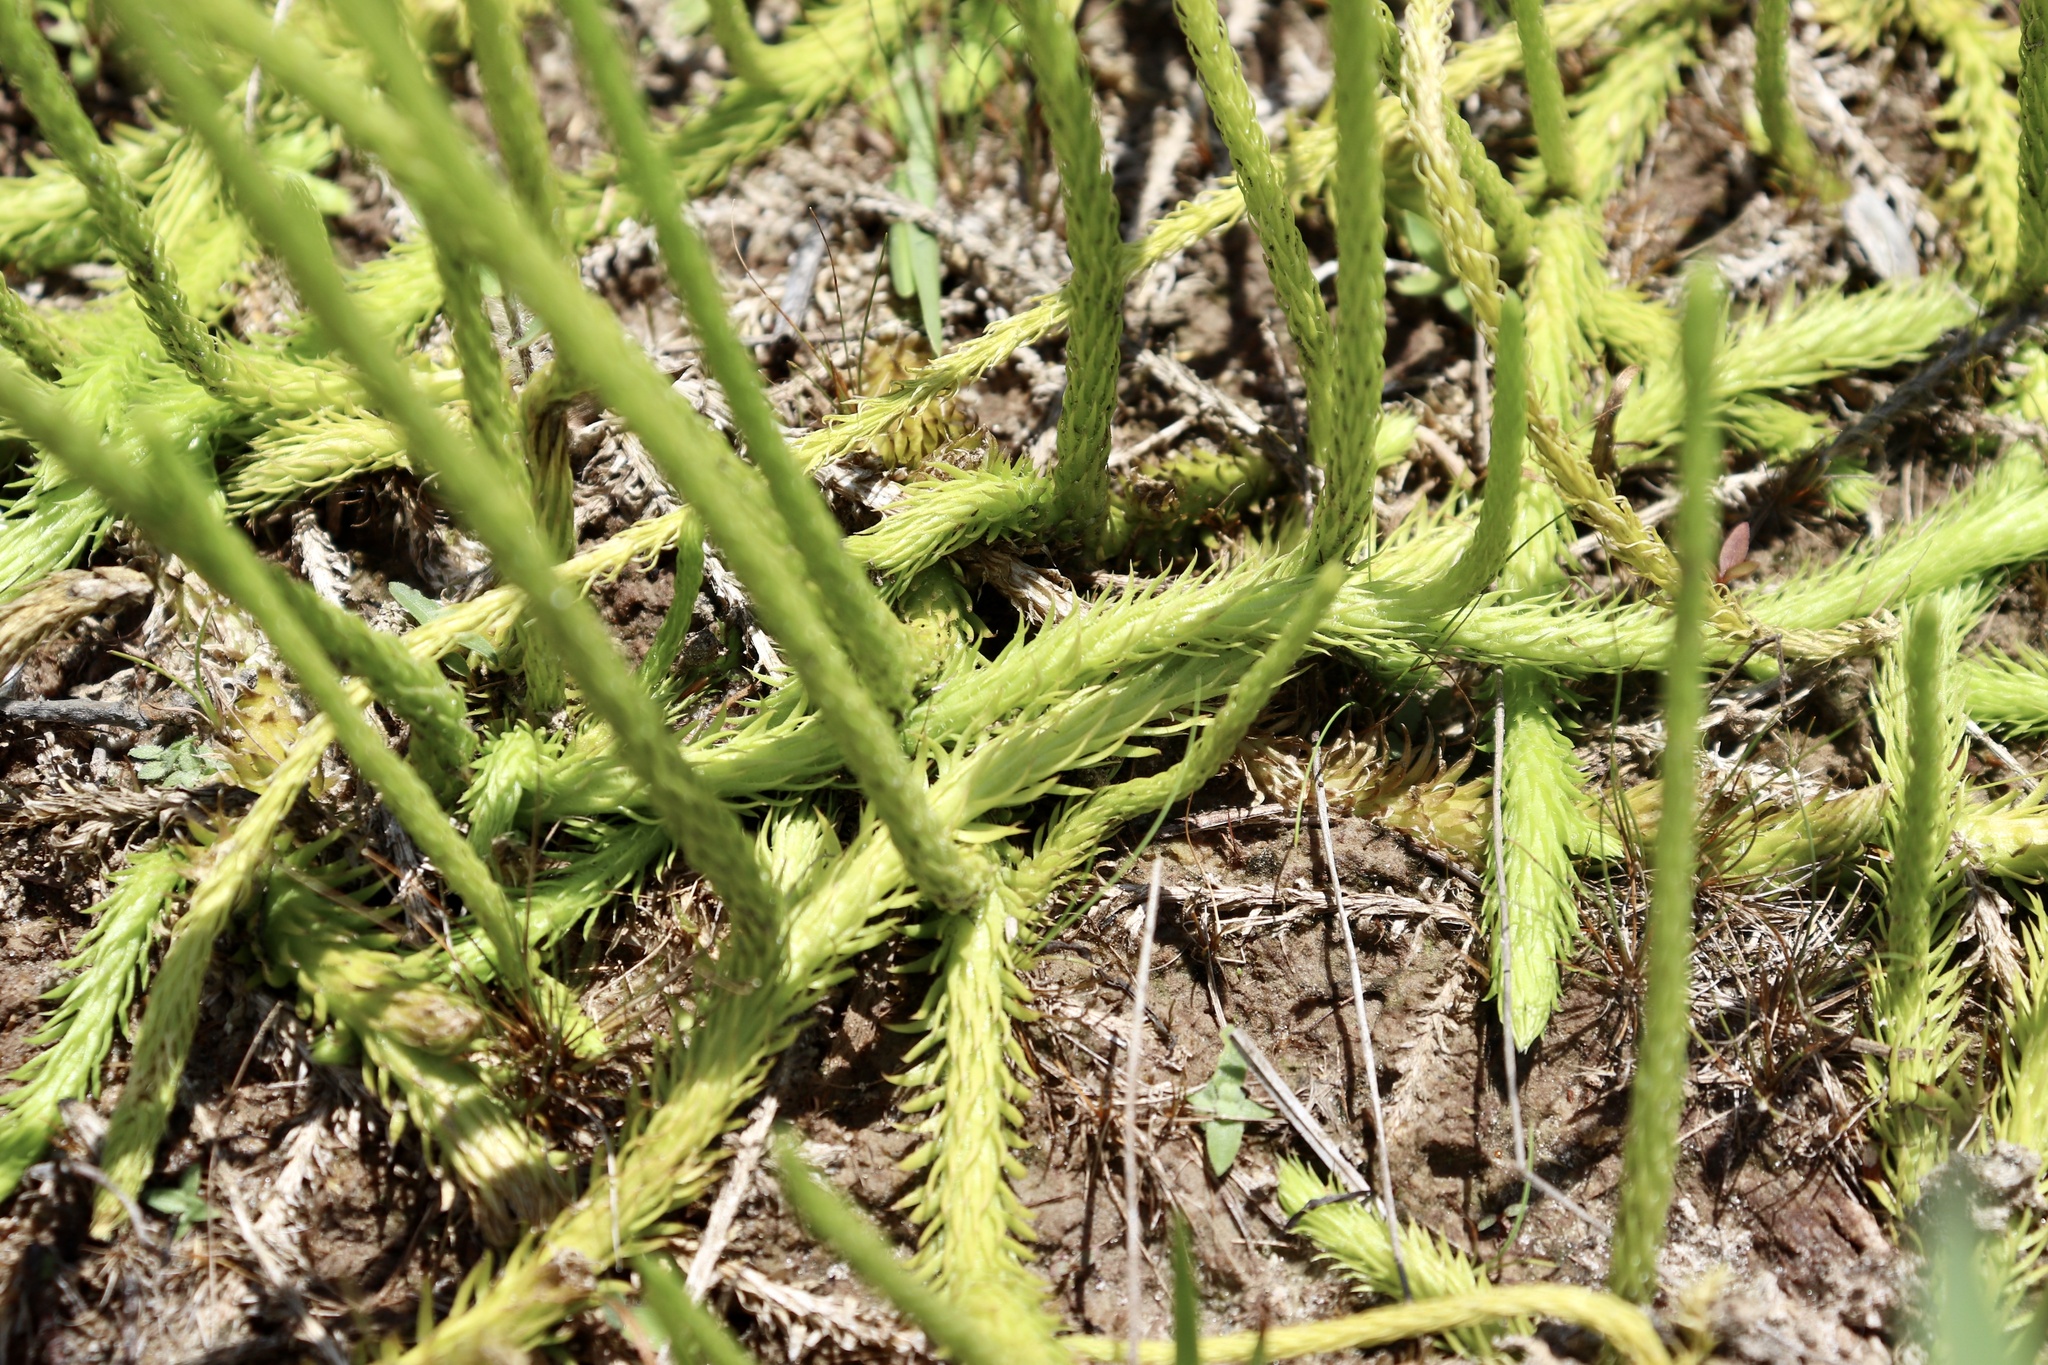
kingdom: Plantae
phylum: Tracheophyta
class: Lycopodiopsida
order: Lycopodiales
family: Lycopodiaceae
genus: Lycopodiella
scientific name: Lycopodiella appressa
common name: Appressed bog clubmoss
